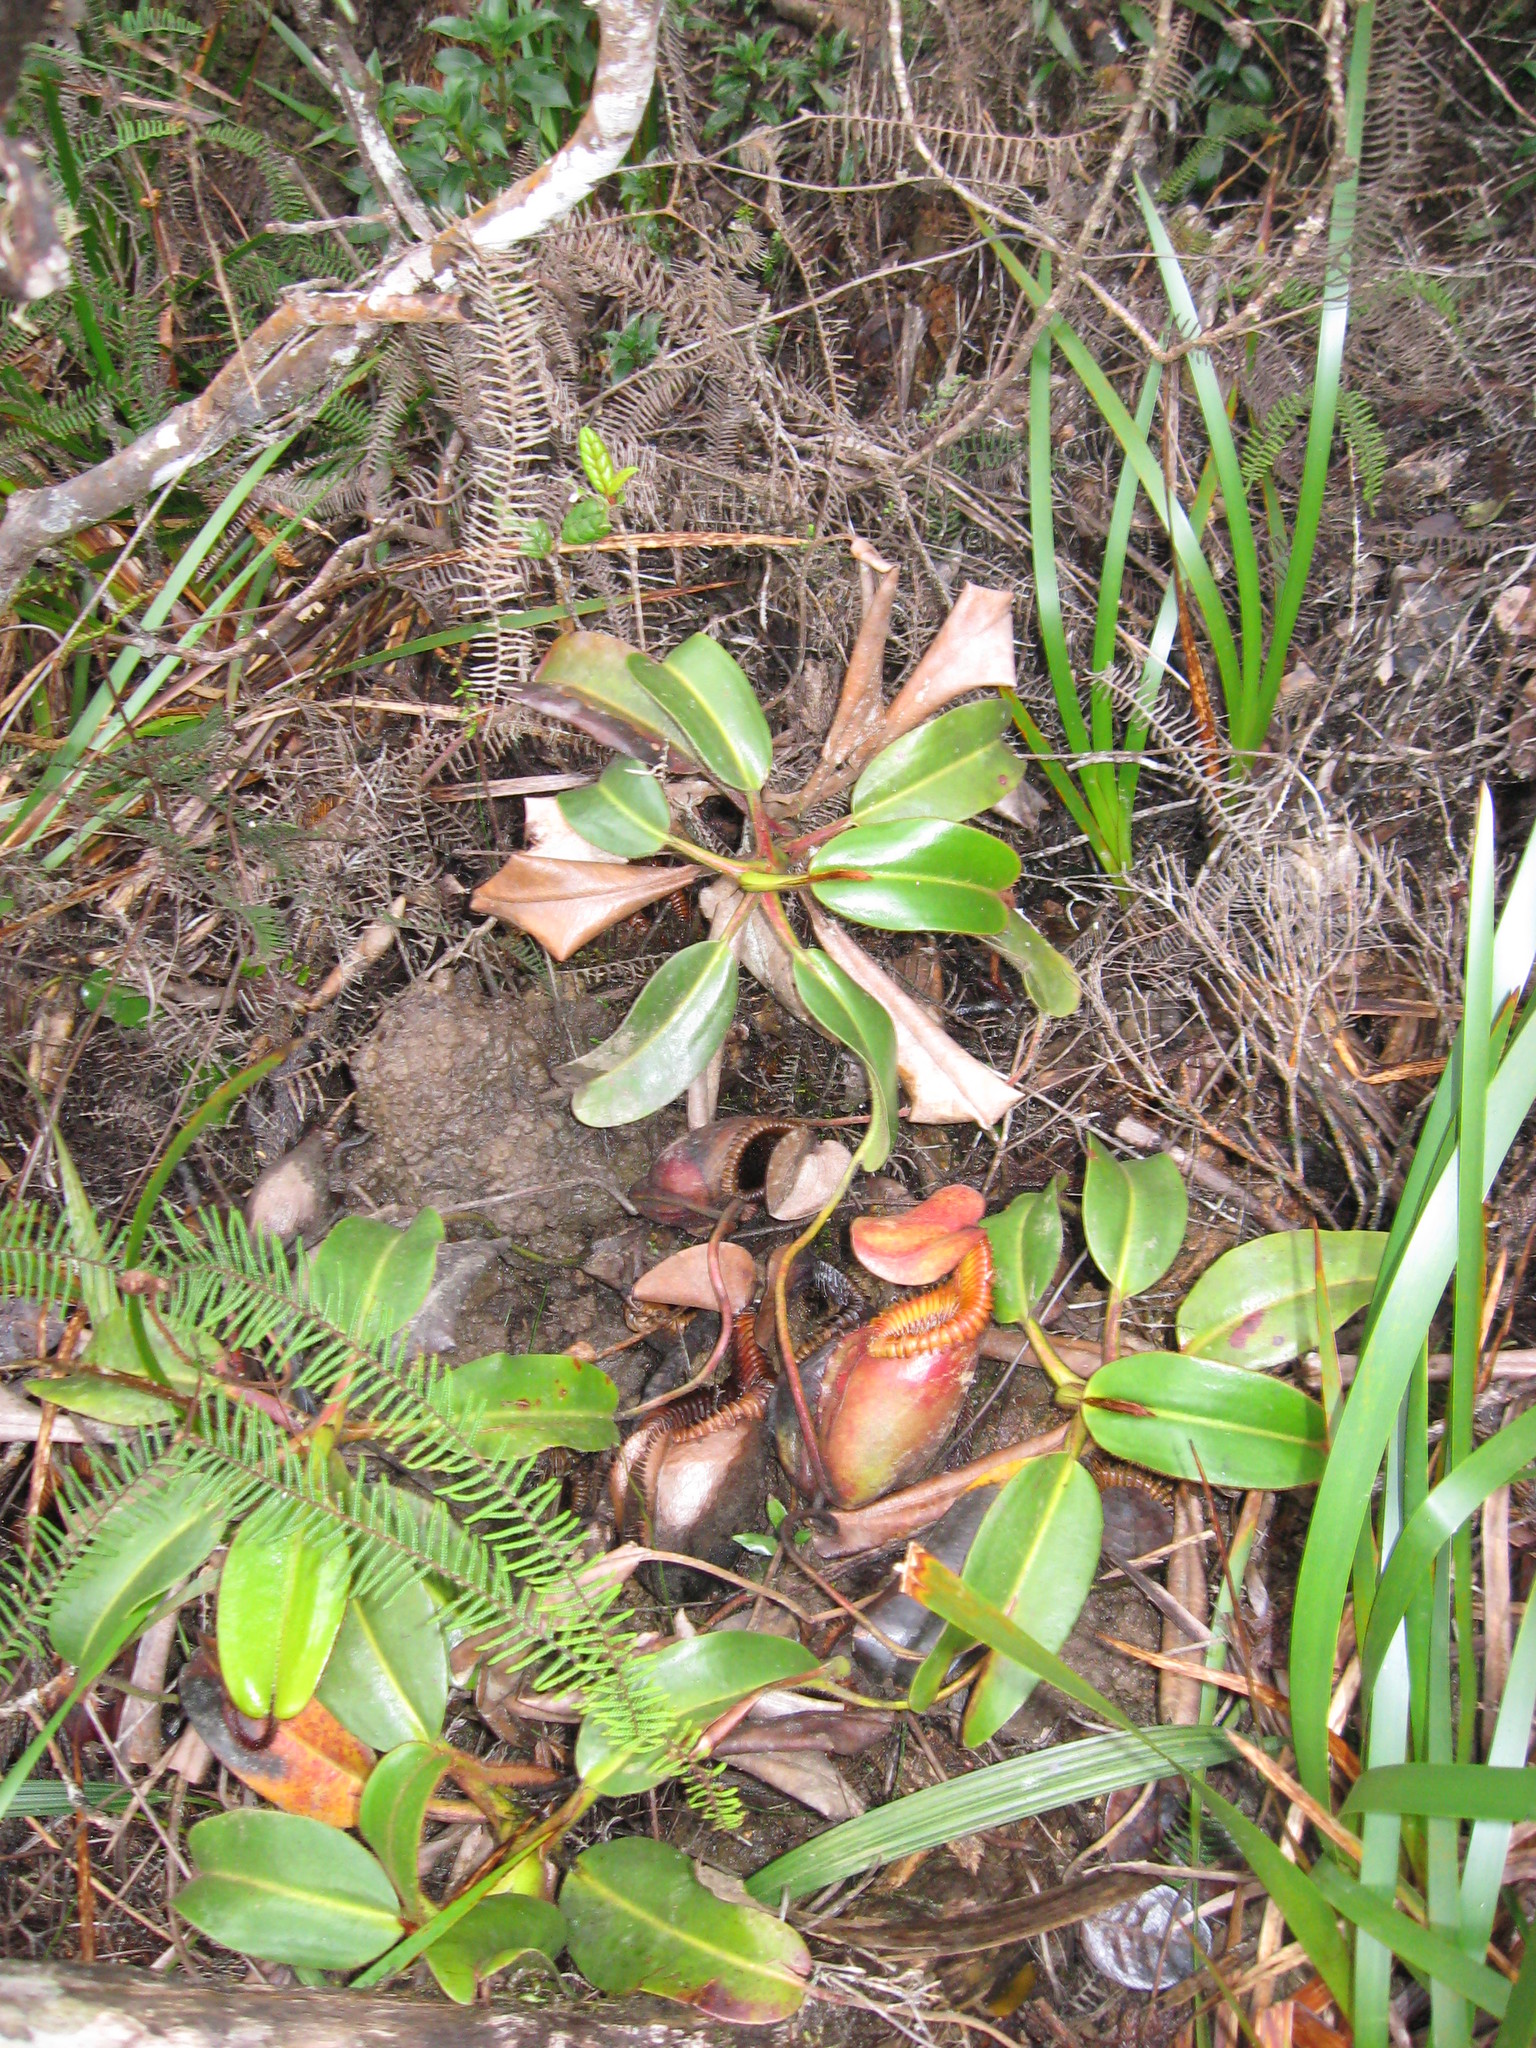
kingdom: Plantae
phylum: Tracheophyta
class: Magnoliopsida
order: Caryophyllales
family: Nepenthaceae
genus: Nepenthes
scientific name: Nepenthes villosa
